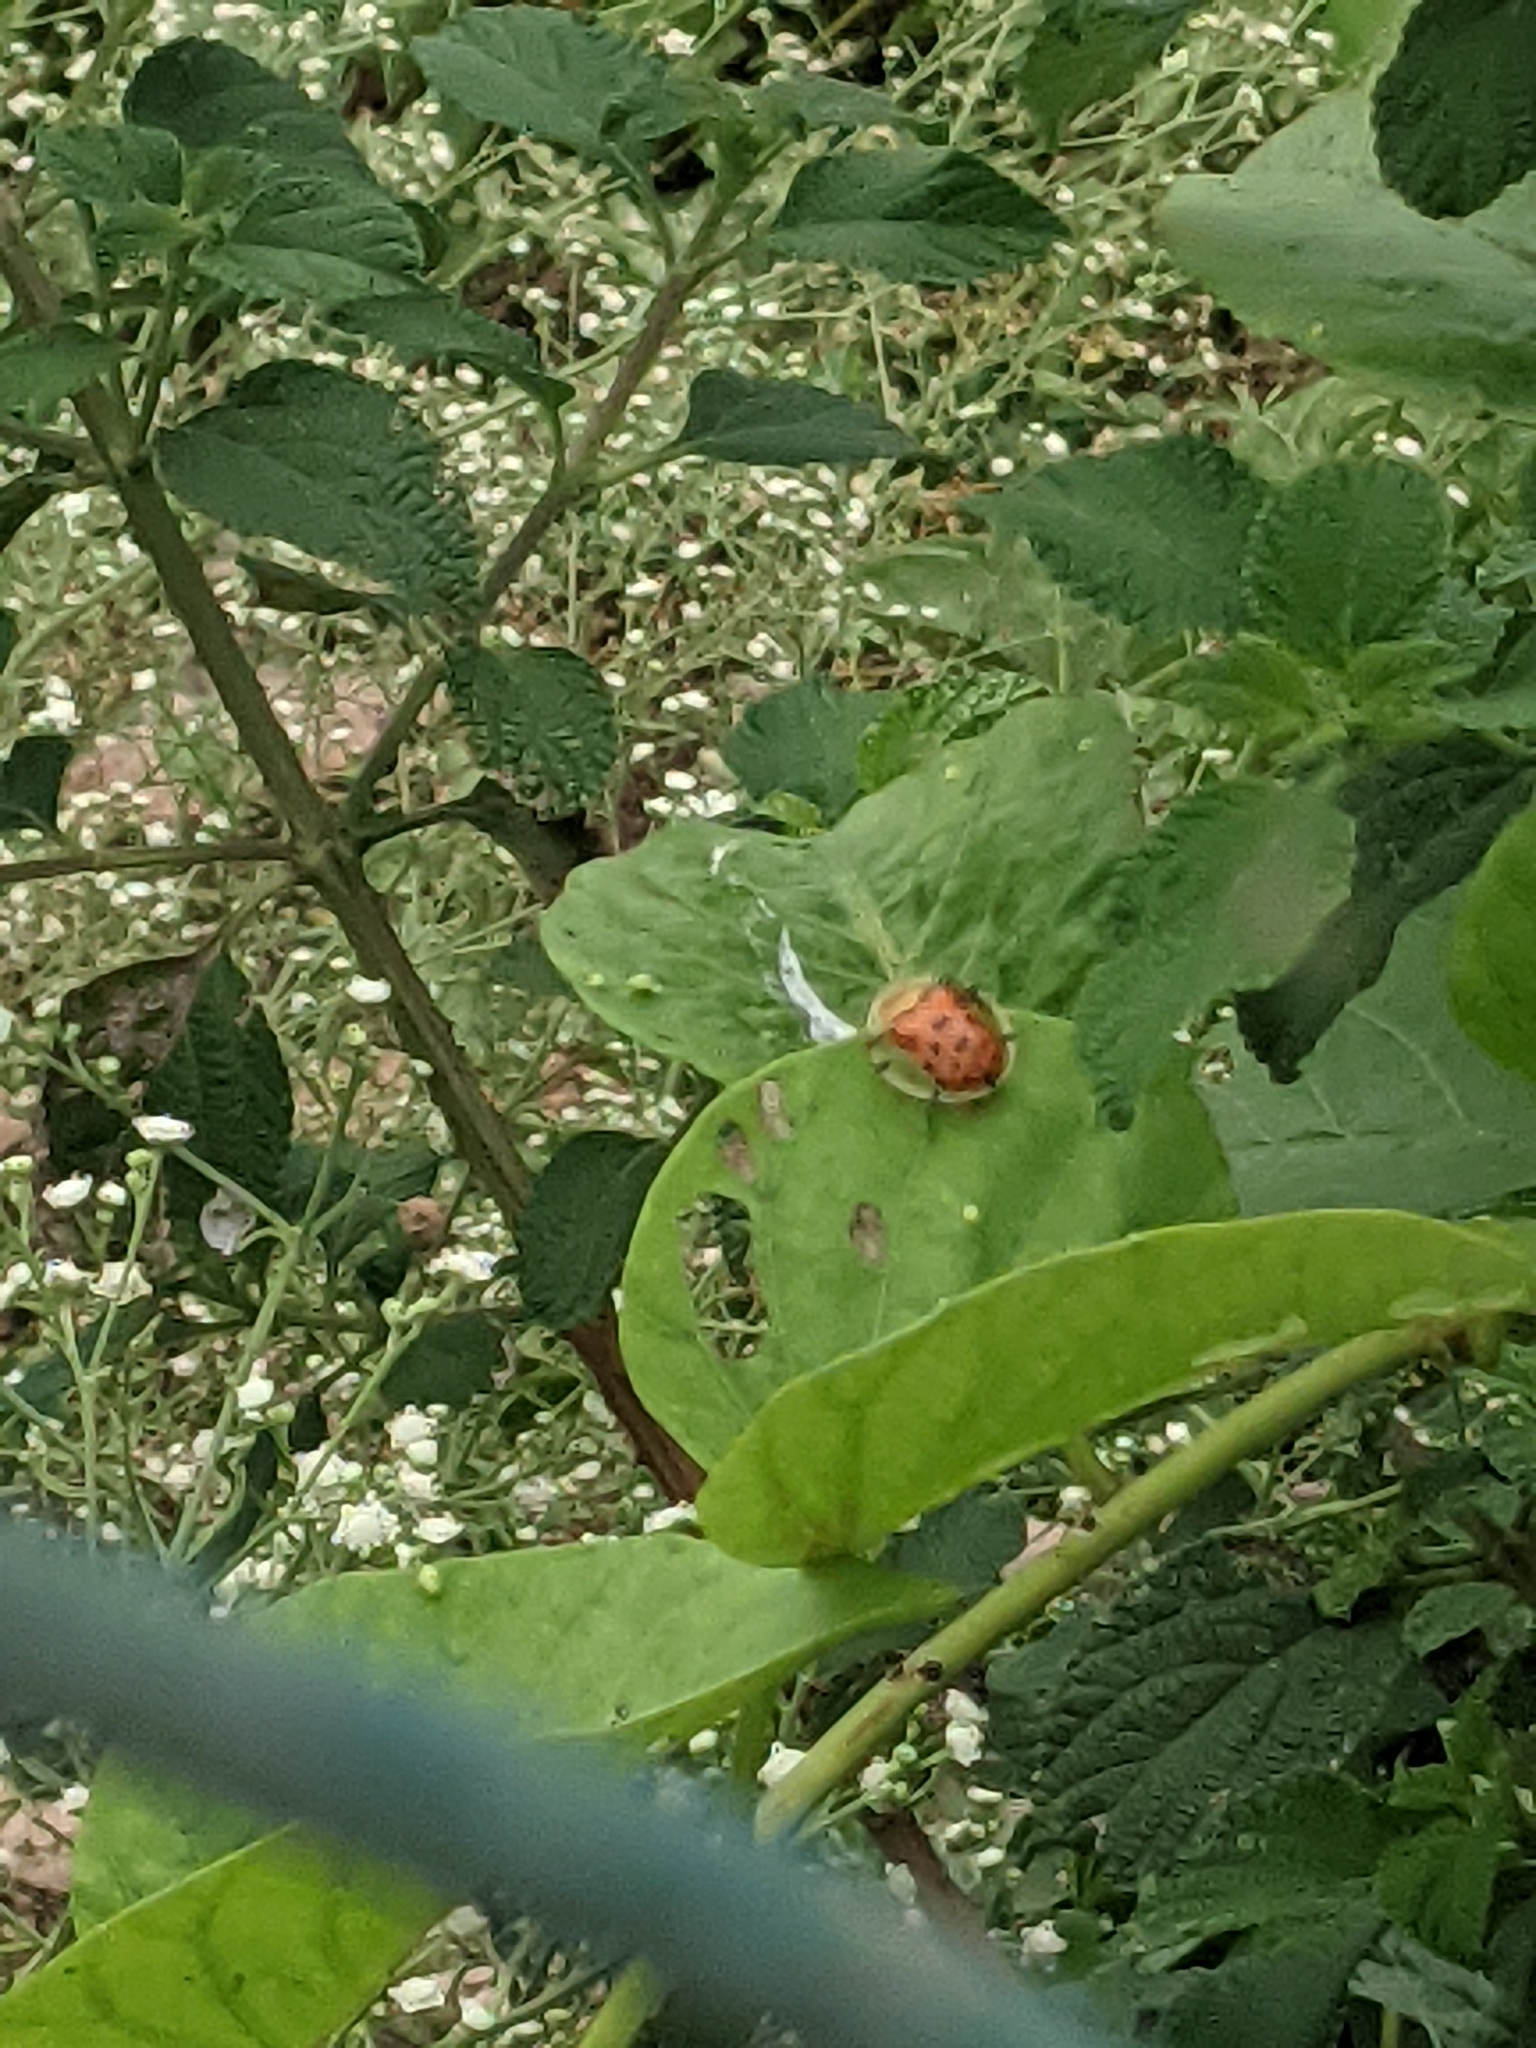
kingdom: Animalia
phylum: Arthropoda
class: Insecta
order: Coleoptera
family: Chrysomelidae
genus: Aspidimorpha
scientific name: Aspidimorpha miliaris
